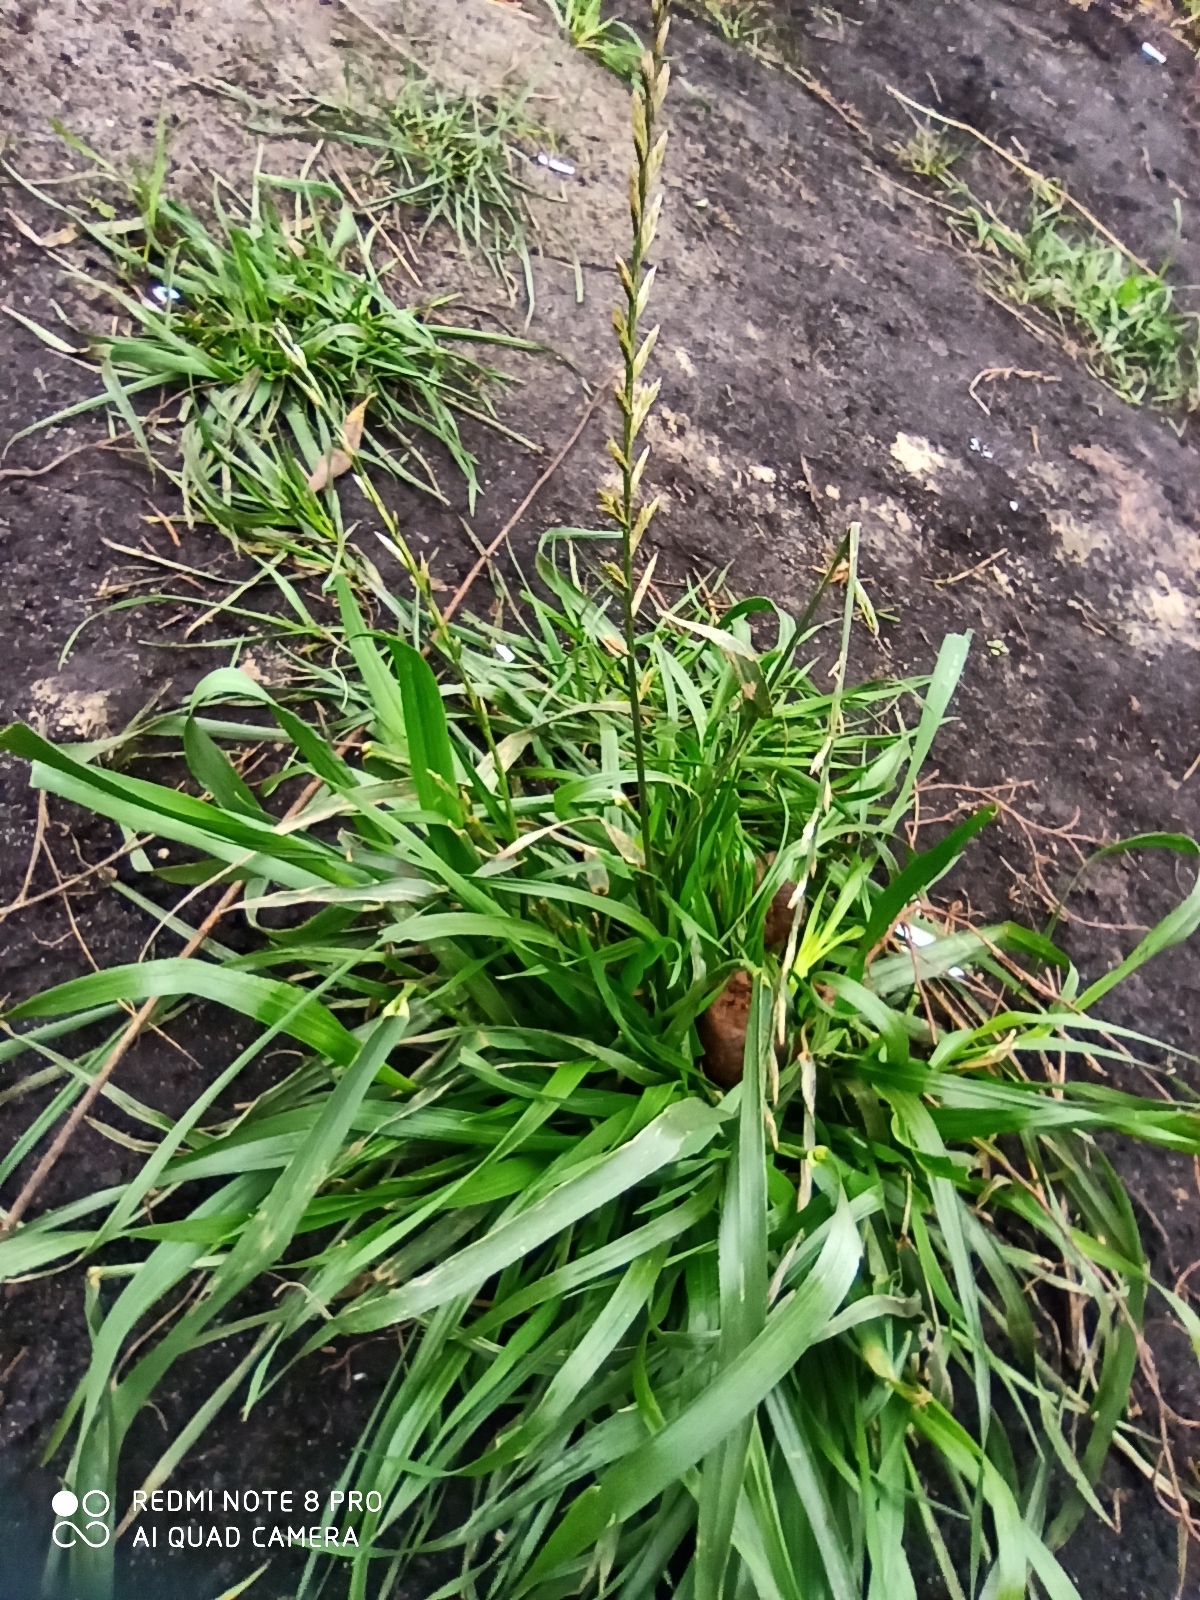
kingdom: Plantae
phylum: Tracheophyta
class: Liliopsida
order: Poales
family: Poaceae
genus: Lolium
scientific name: Lolium perenne
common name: Perennial ryegrass
